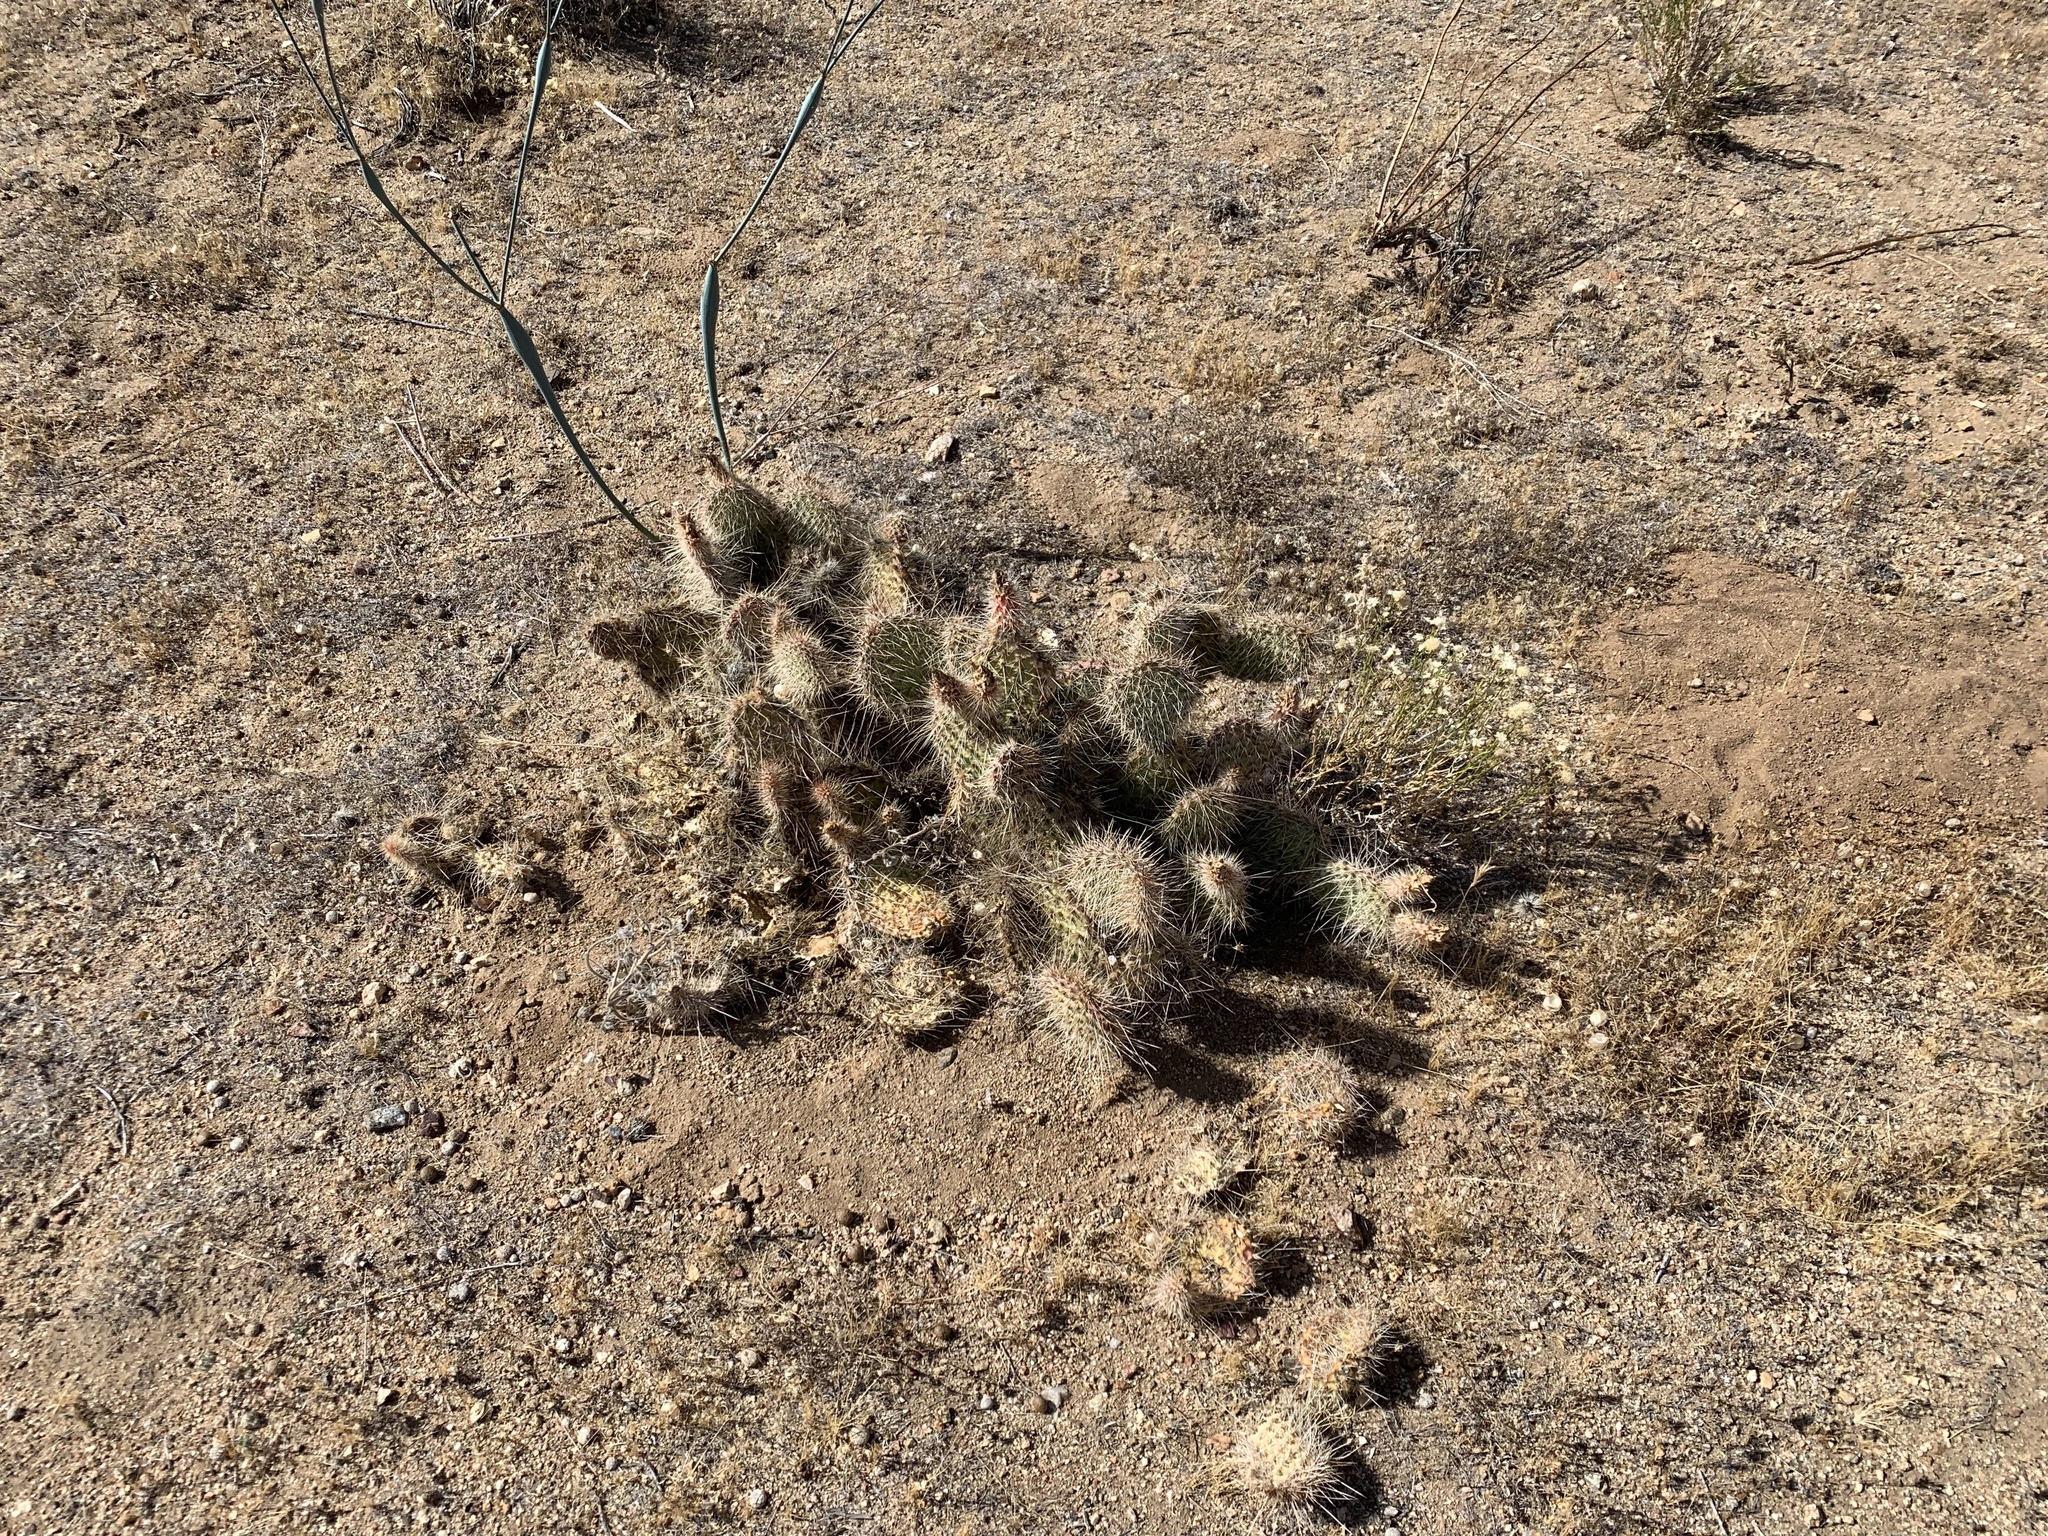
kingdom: Plantae
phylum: Tracheophyta
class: Magnoliopsida
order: Caryophyllales
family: Cactaceae
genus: Opuntia
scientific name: Opuntia polyacantha
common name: Plains prickly-pear
